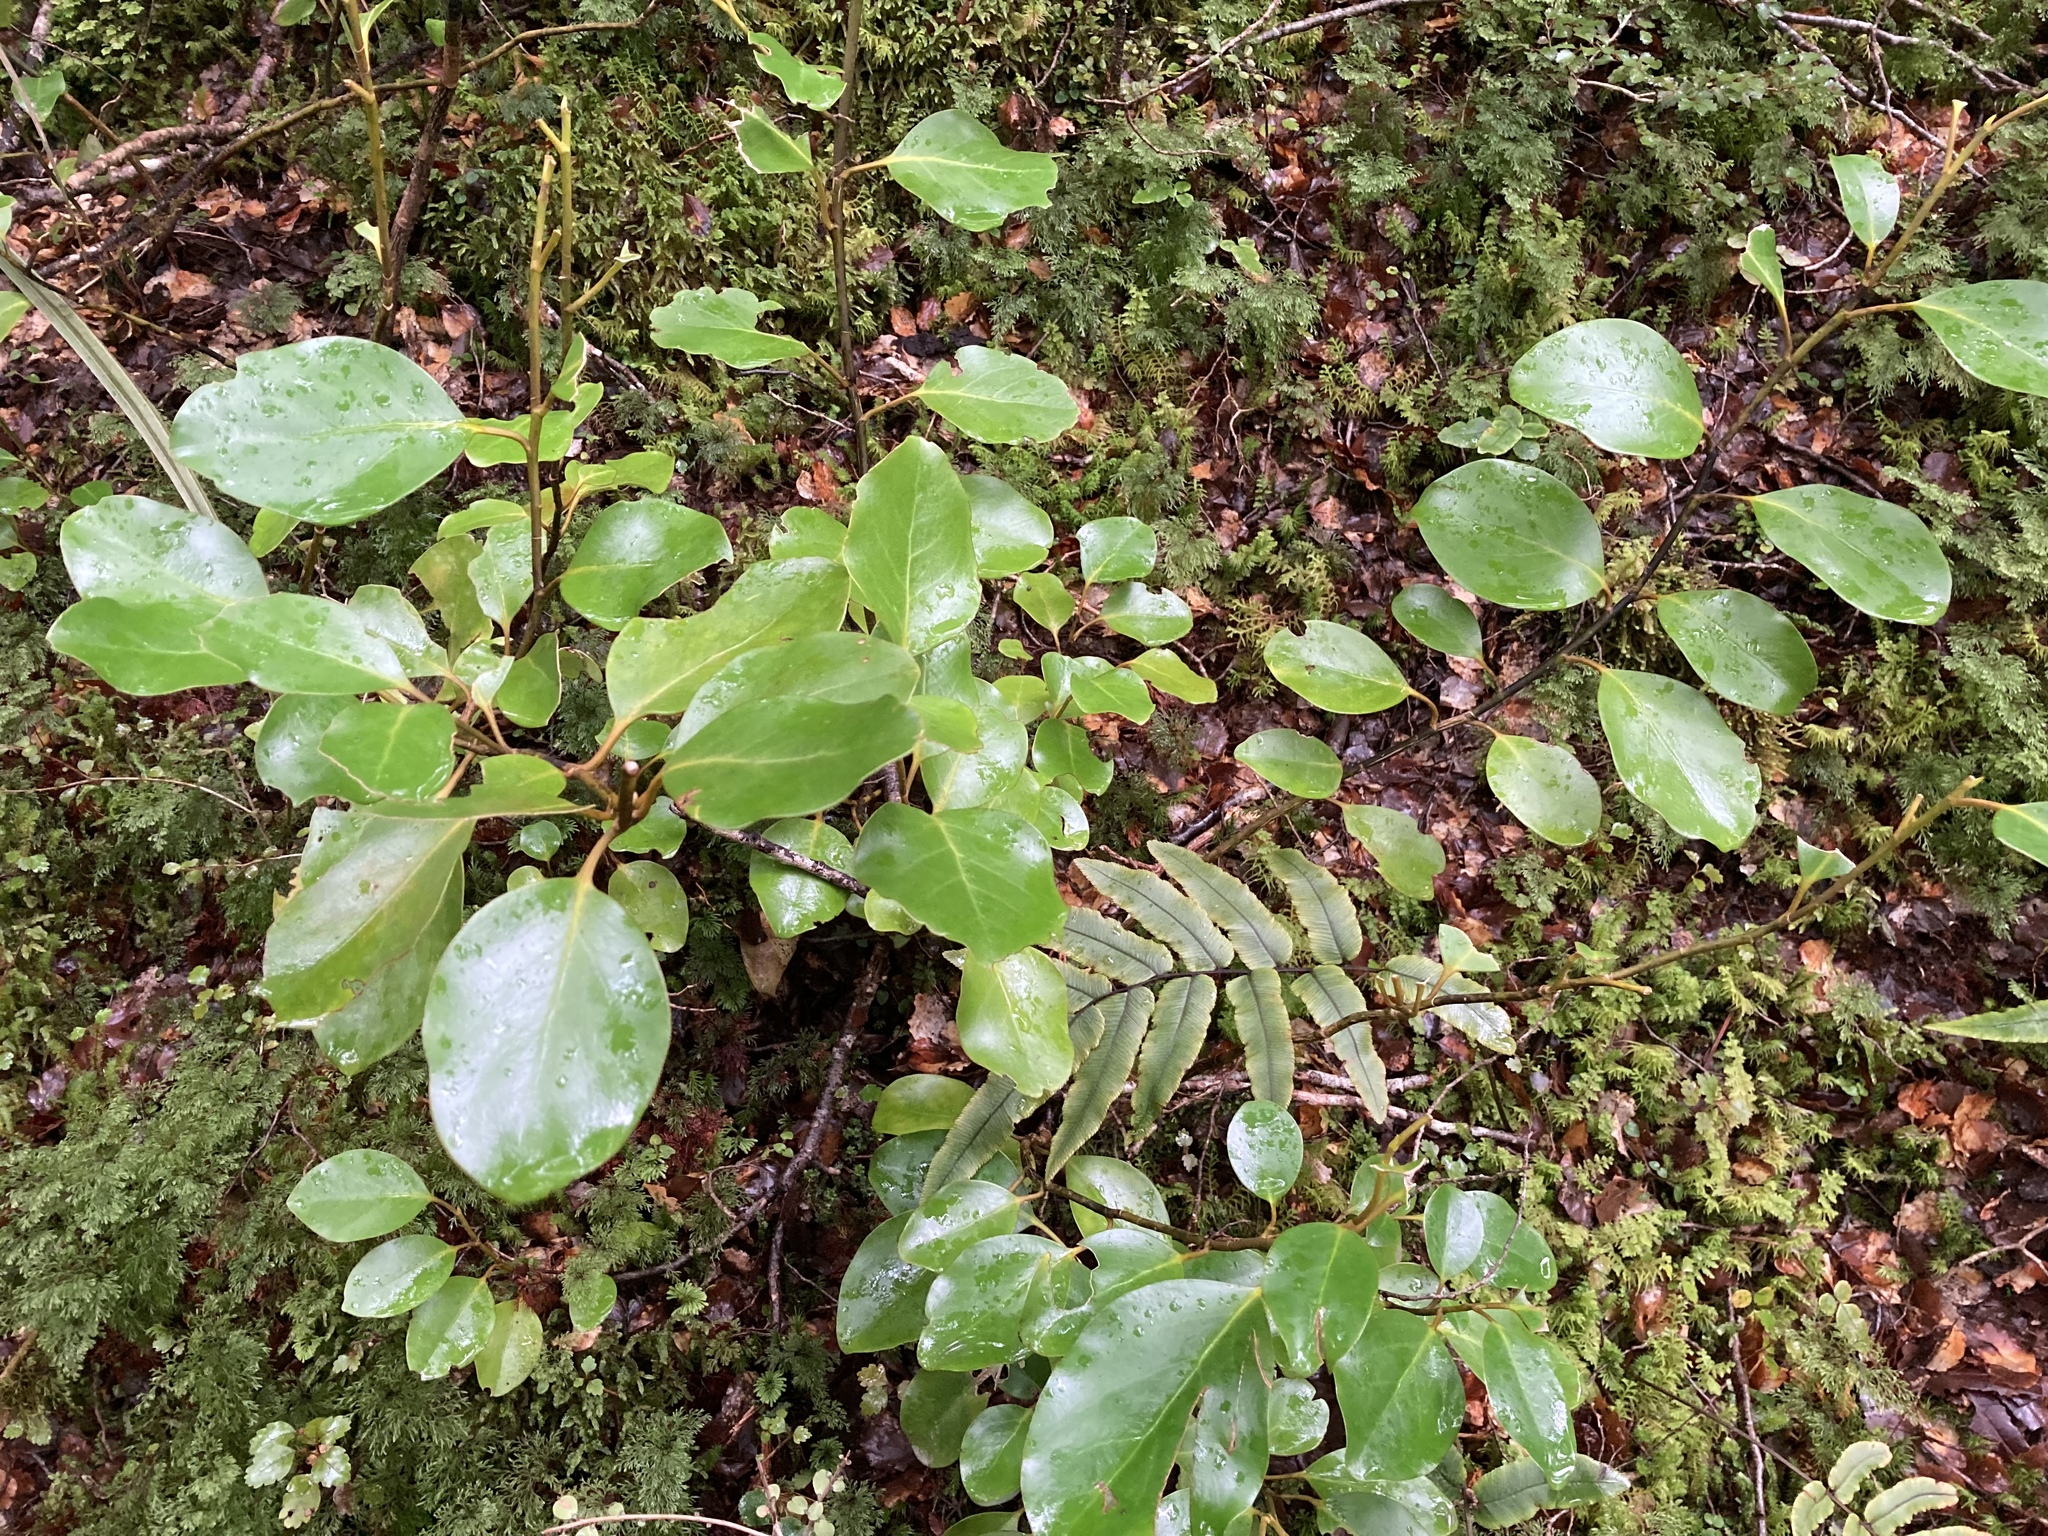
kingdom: Plantae
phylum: Tracheophyta
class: Magnoliopsida
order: Apiales
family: Griseliniaceae
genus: Griselinia
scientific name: Griselinia littoralis
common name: New zealand broadleaf
